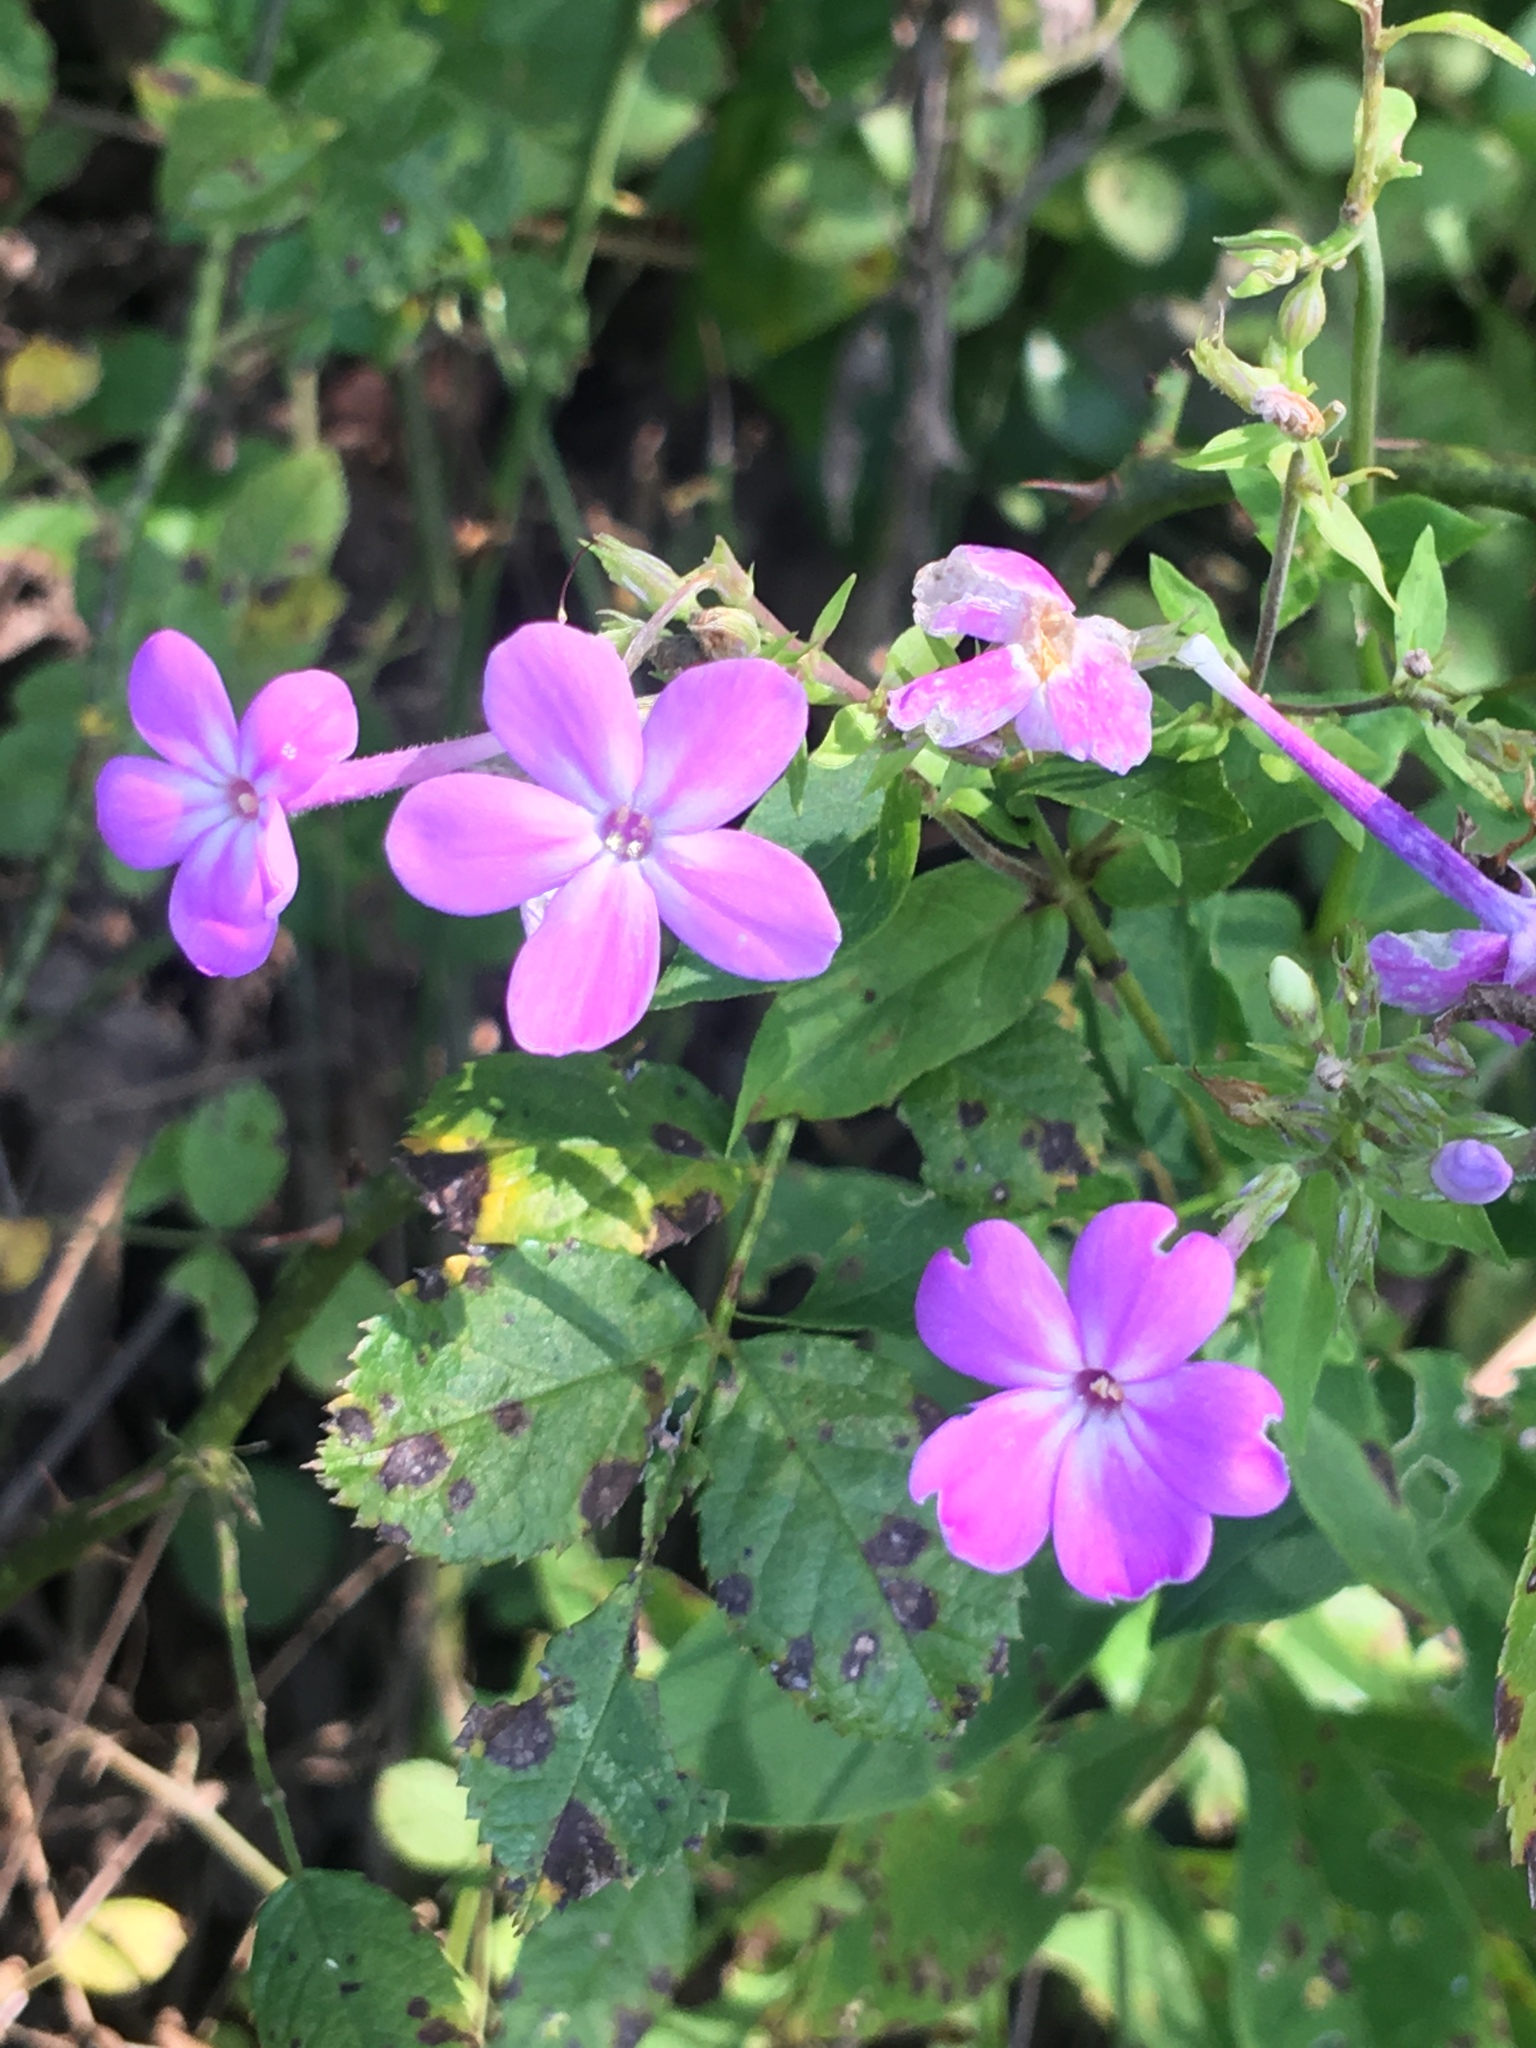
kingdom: Plantae
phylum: Tracheophyta
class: Magnoliopsida
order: Ericales
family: Polemoniaceae
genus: Phlox
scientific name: Phlox paniculata
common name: Fall phlox
